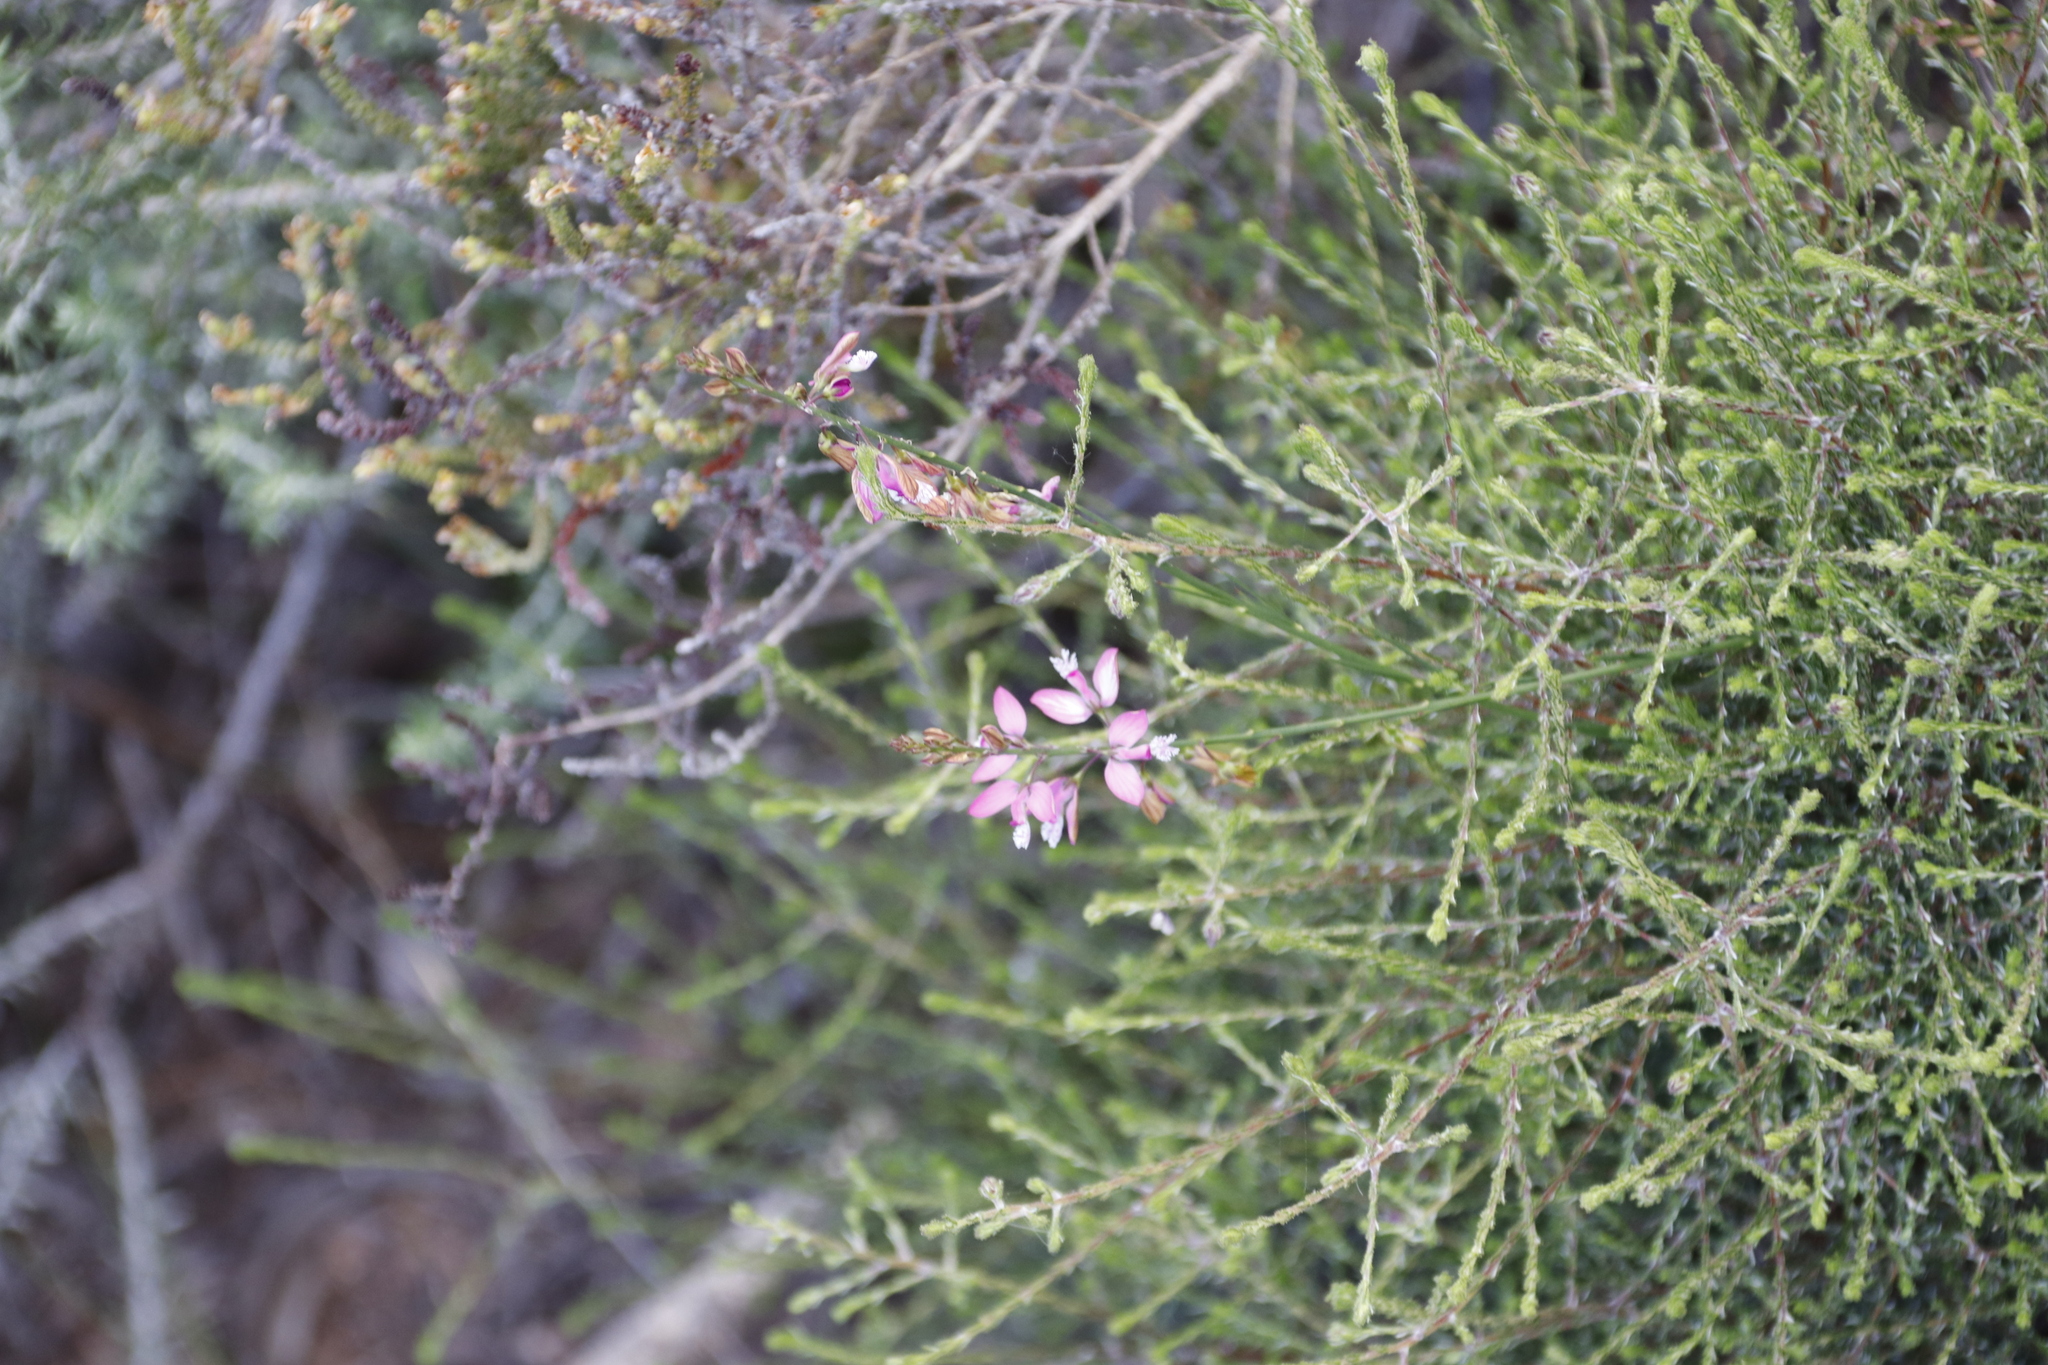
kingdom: Plantae
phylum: Tracheophyta
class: Magnoliopsida
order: Fabales
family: Polygalaceae
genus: Polygala
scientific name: Polygala garcini
